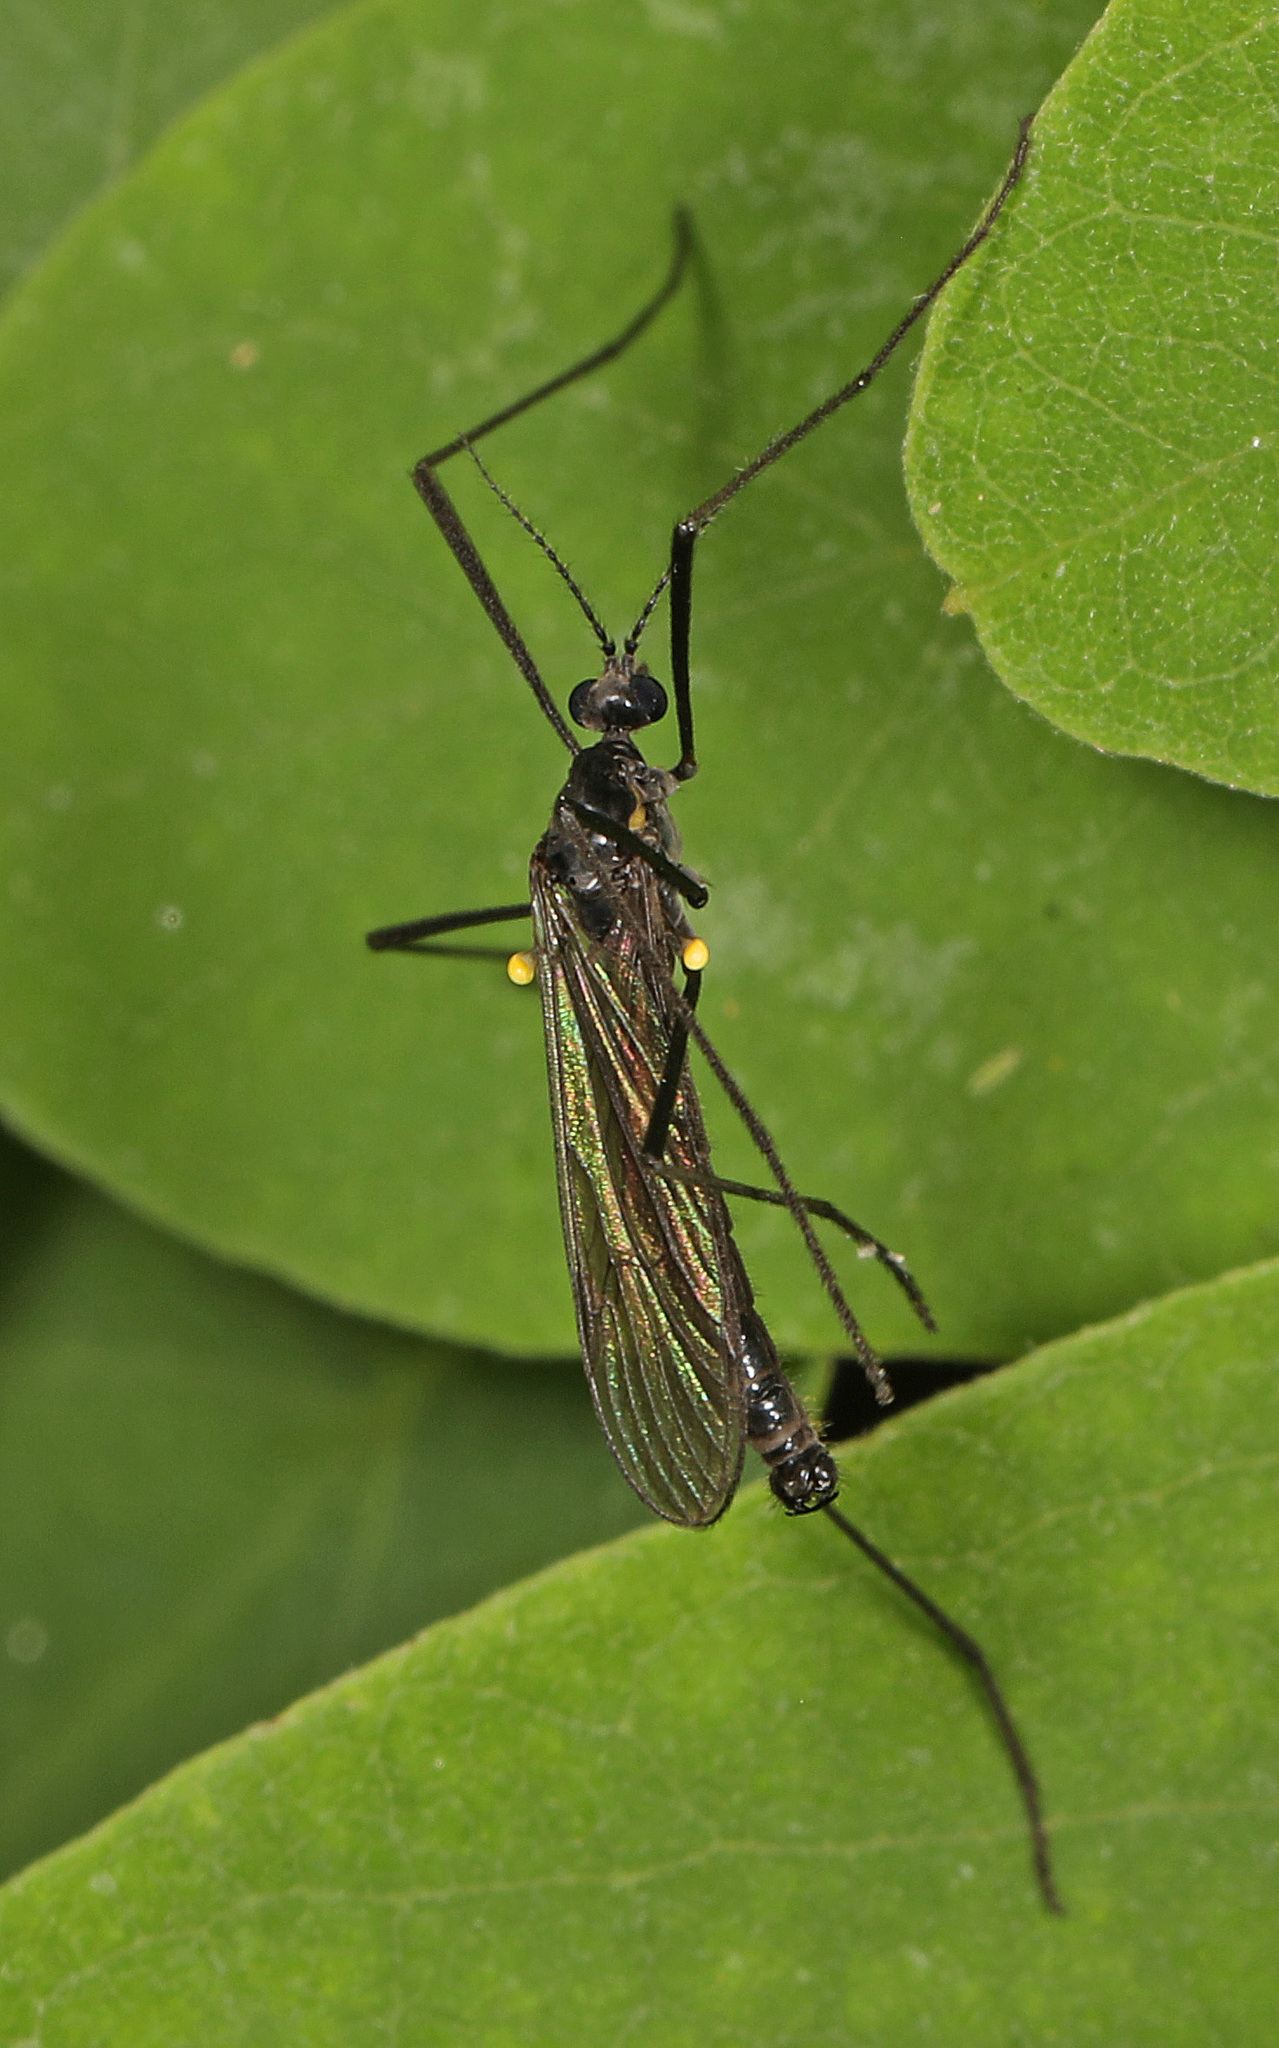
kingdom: Animalia
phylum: Arthropoda
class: Insecta
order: Diptera
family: Limoniidae
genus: Gnophomyia
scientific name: Gnophomyia tristissima
